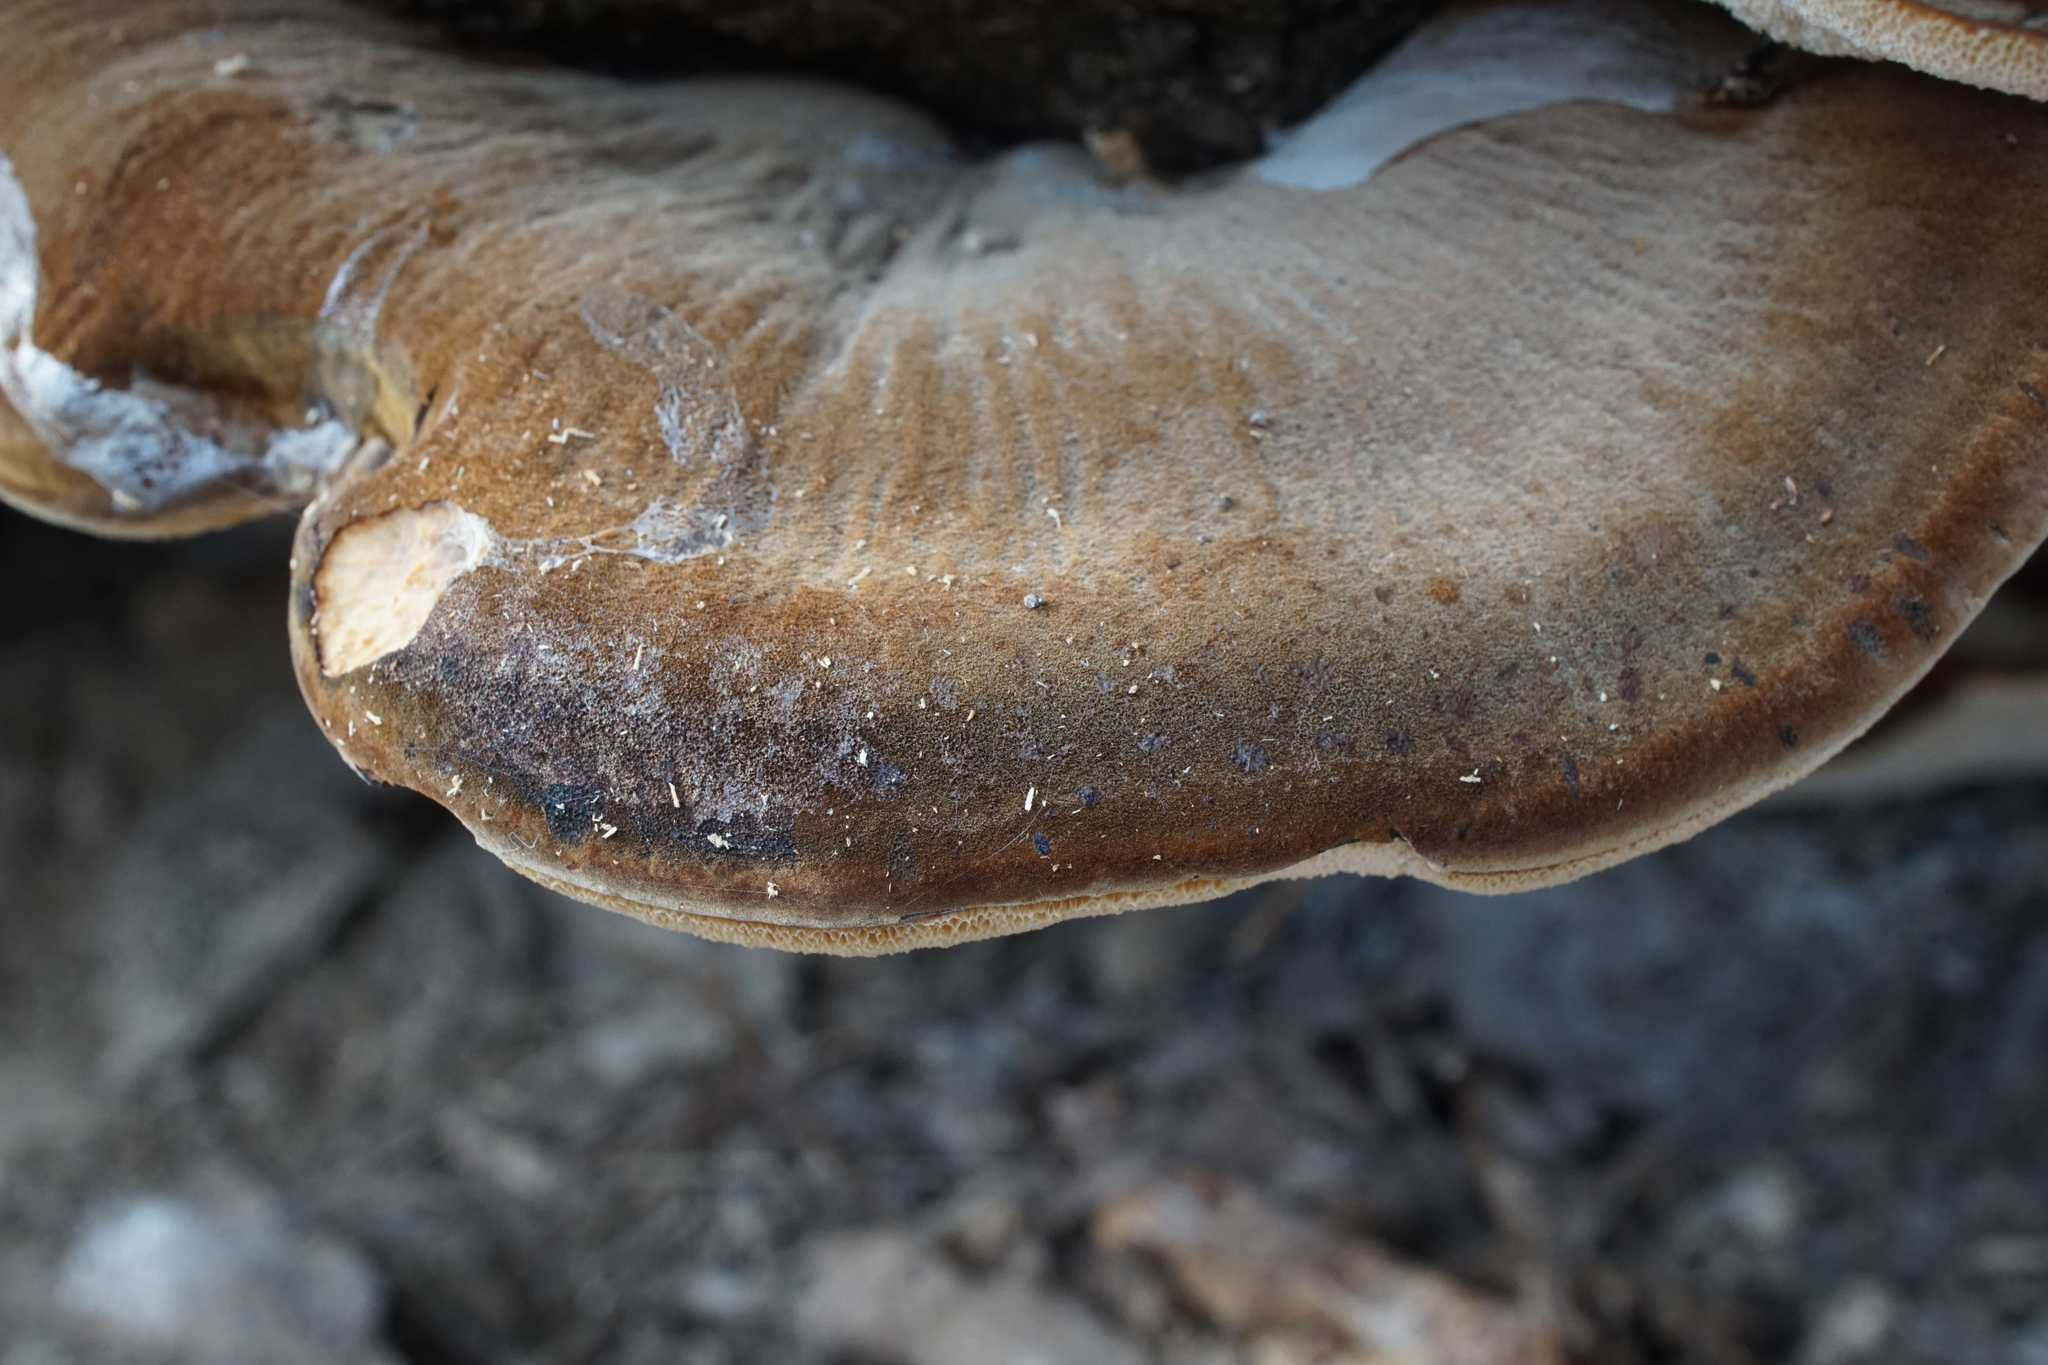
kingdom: Fungi
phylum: Basidiomycota
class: Agaricomycetes
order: Polyporales
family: Ischnodermataceae
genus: Ischnoderma
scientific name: Ischnoderma resinosum
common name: Resinous polypore
